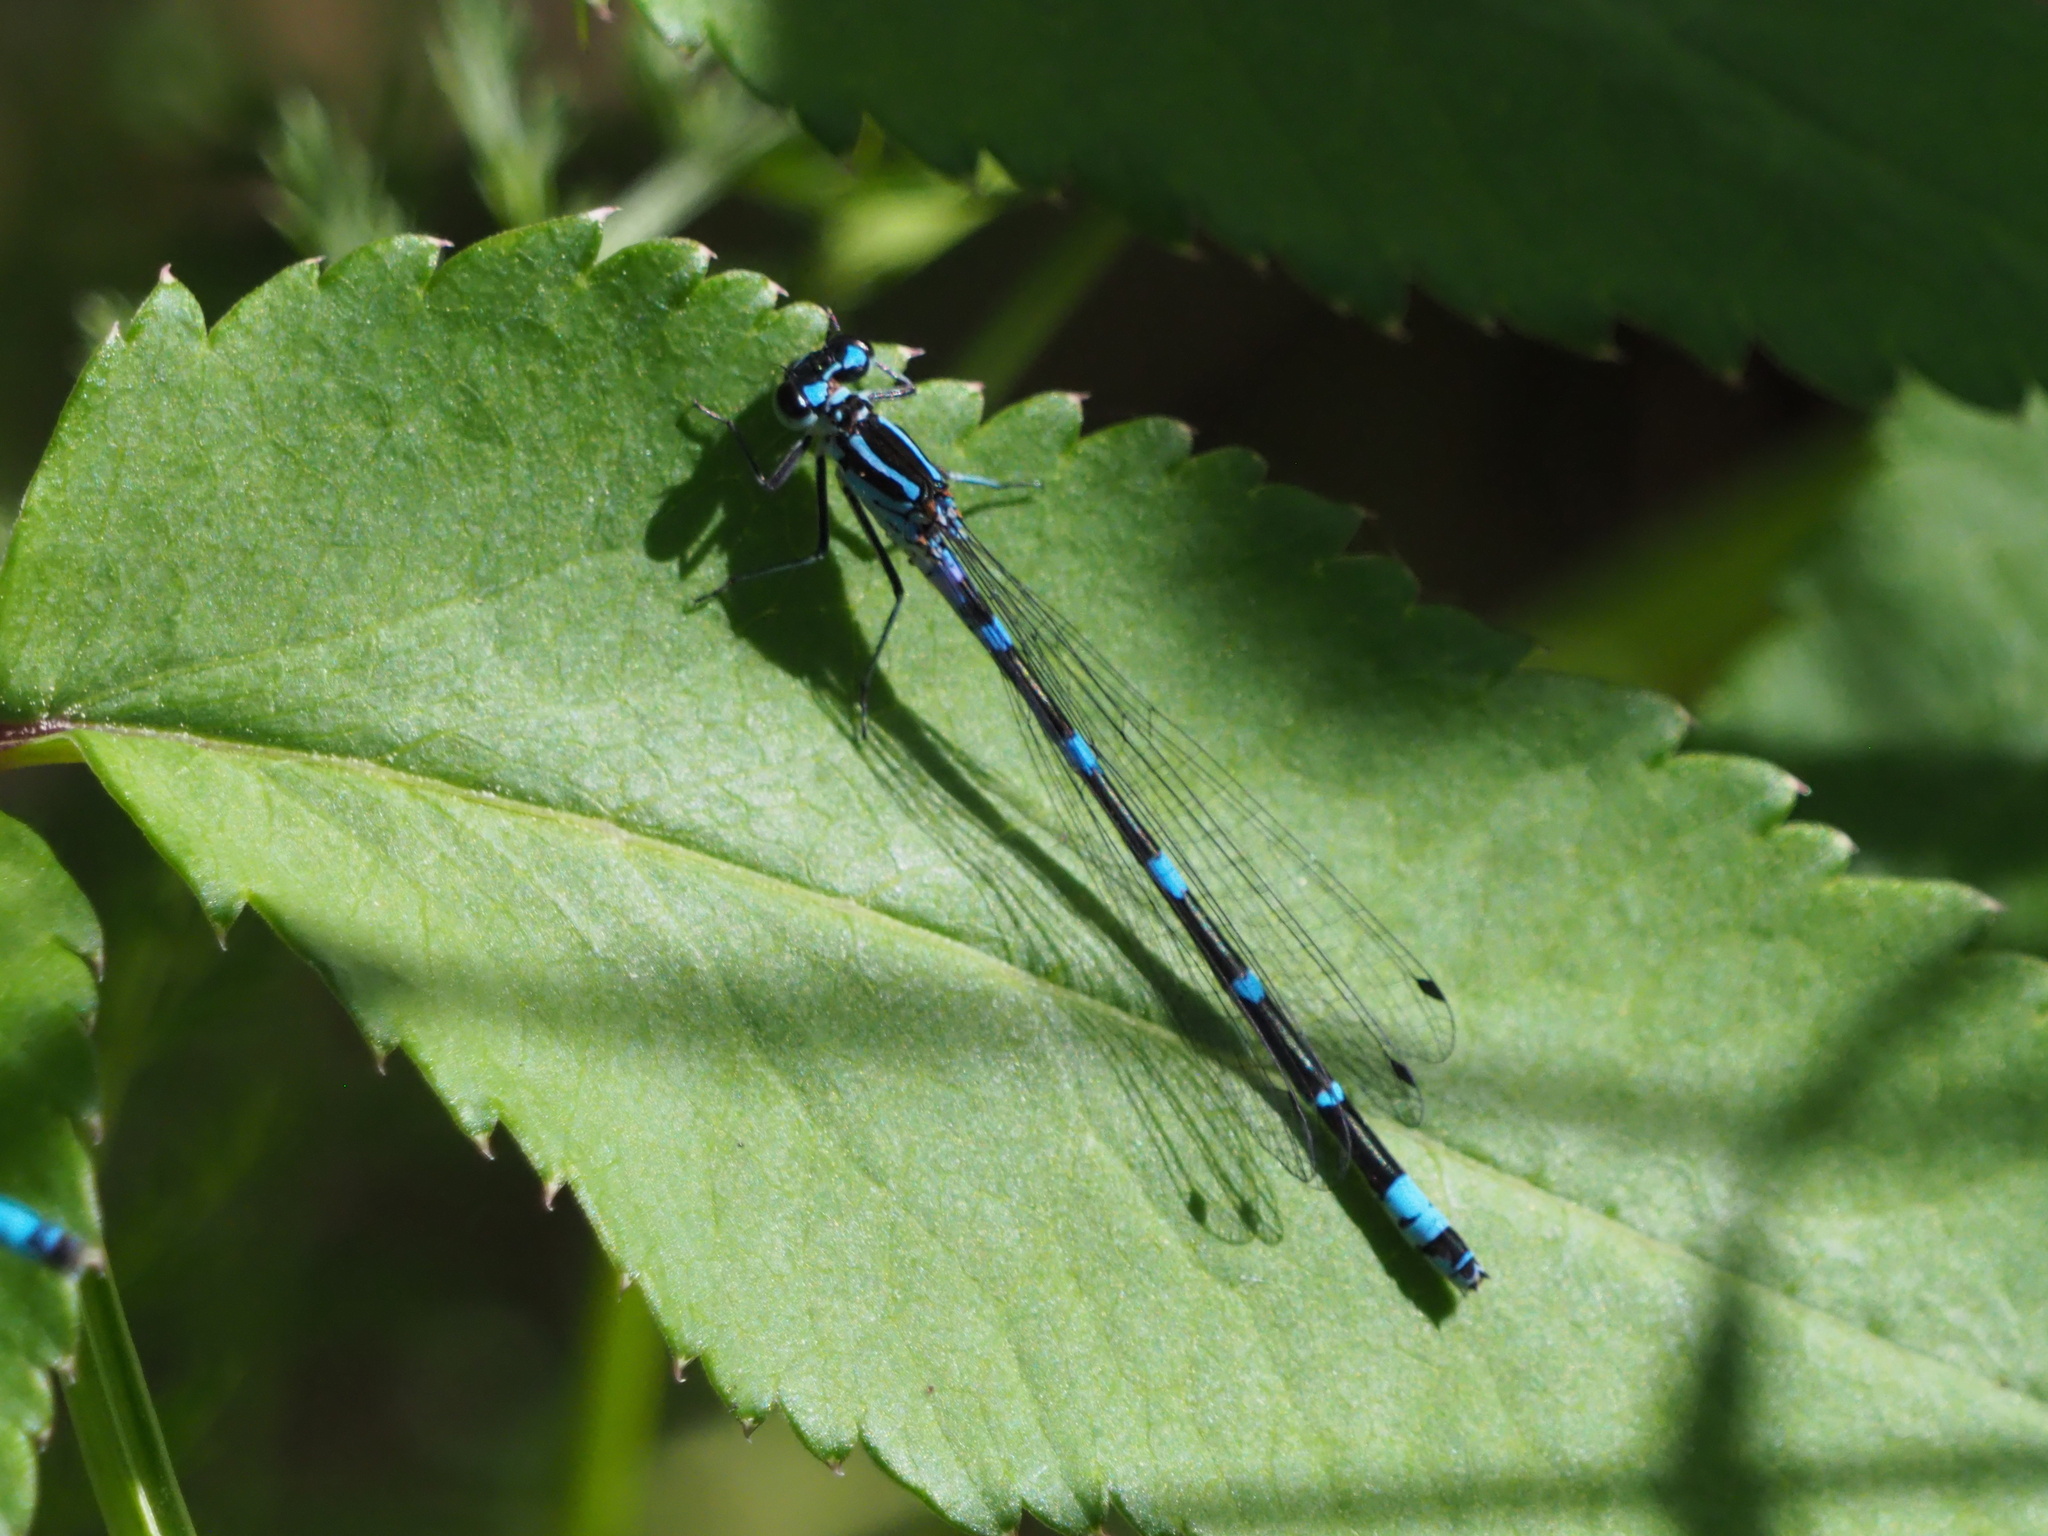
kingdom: Animalia
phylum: Arthropoda
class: Insecta
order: Odonata
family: Coenagrionidae
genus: Coenagrion
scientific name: Coenagrion pulchellum
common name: Variable bluet
